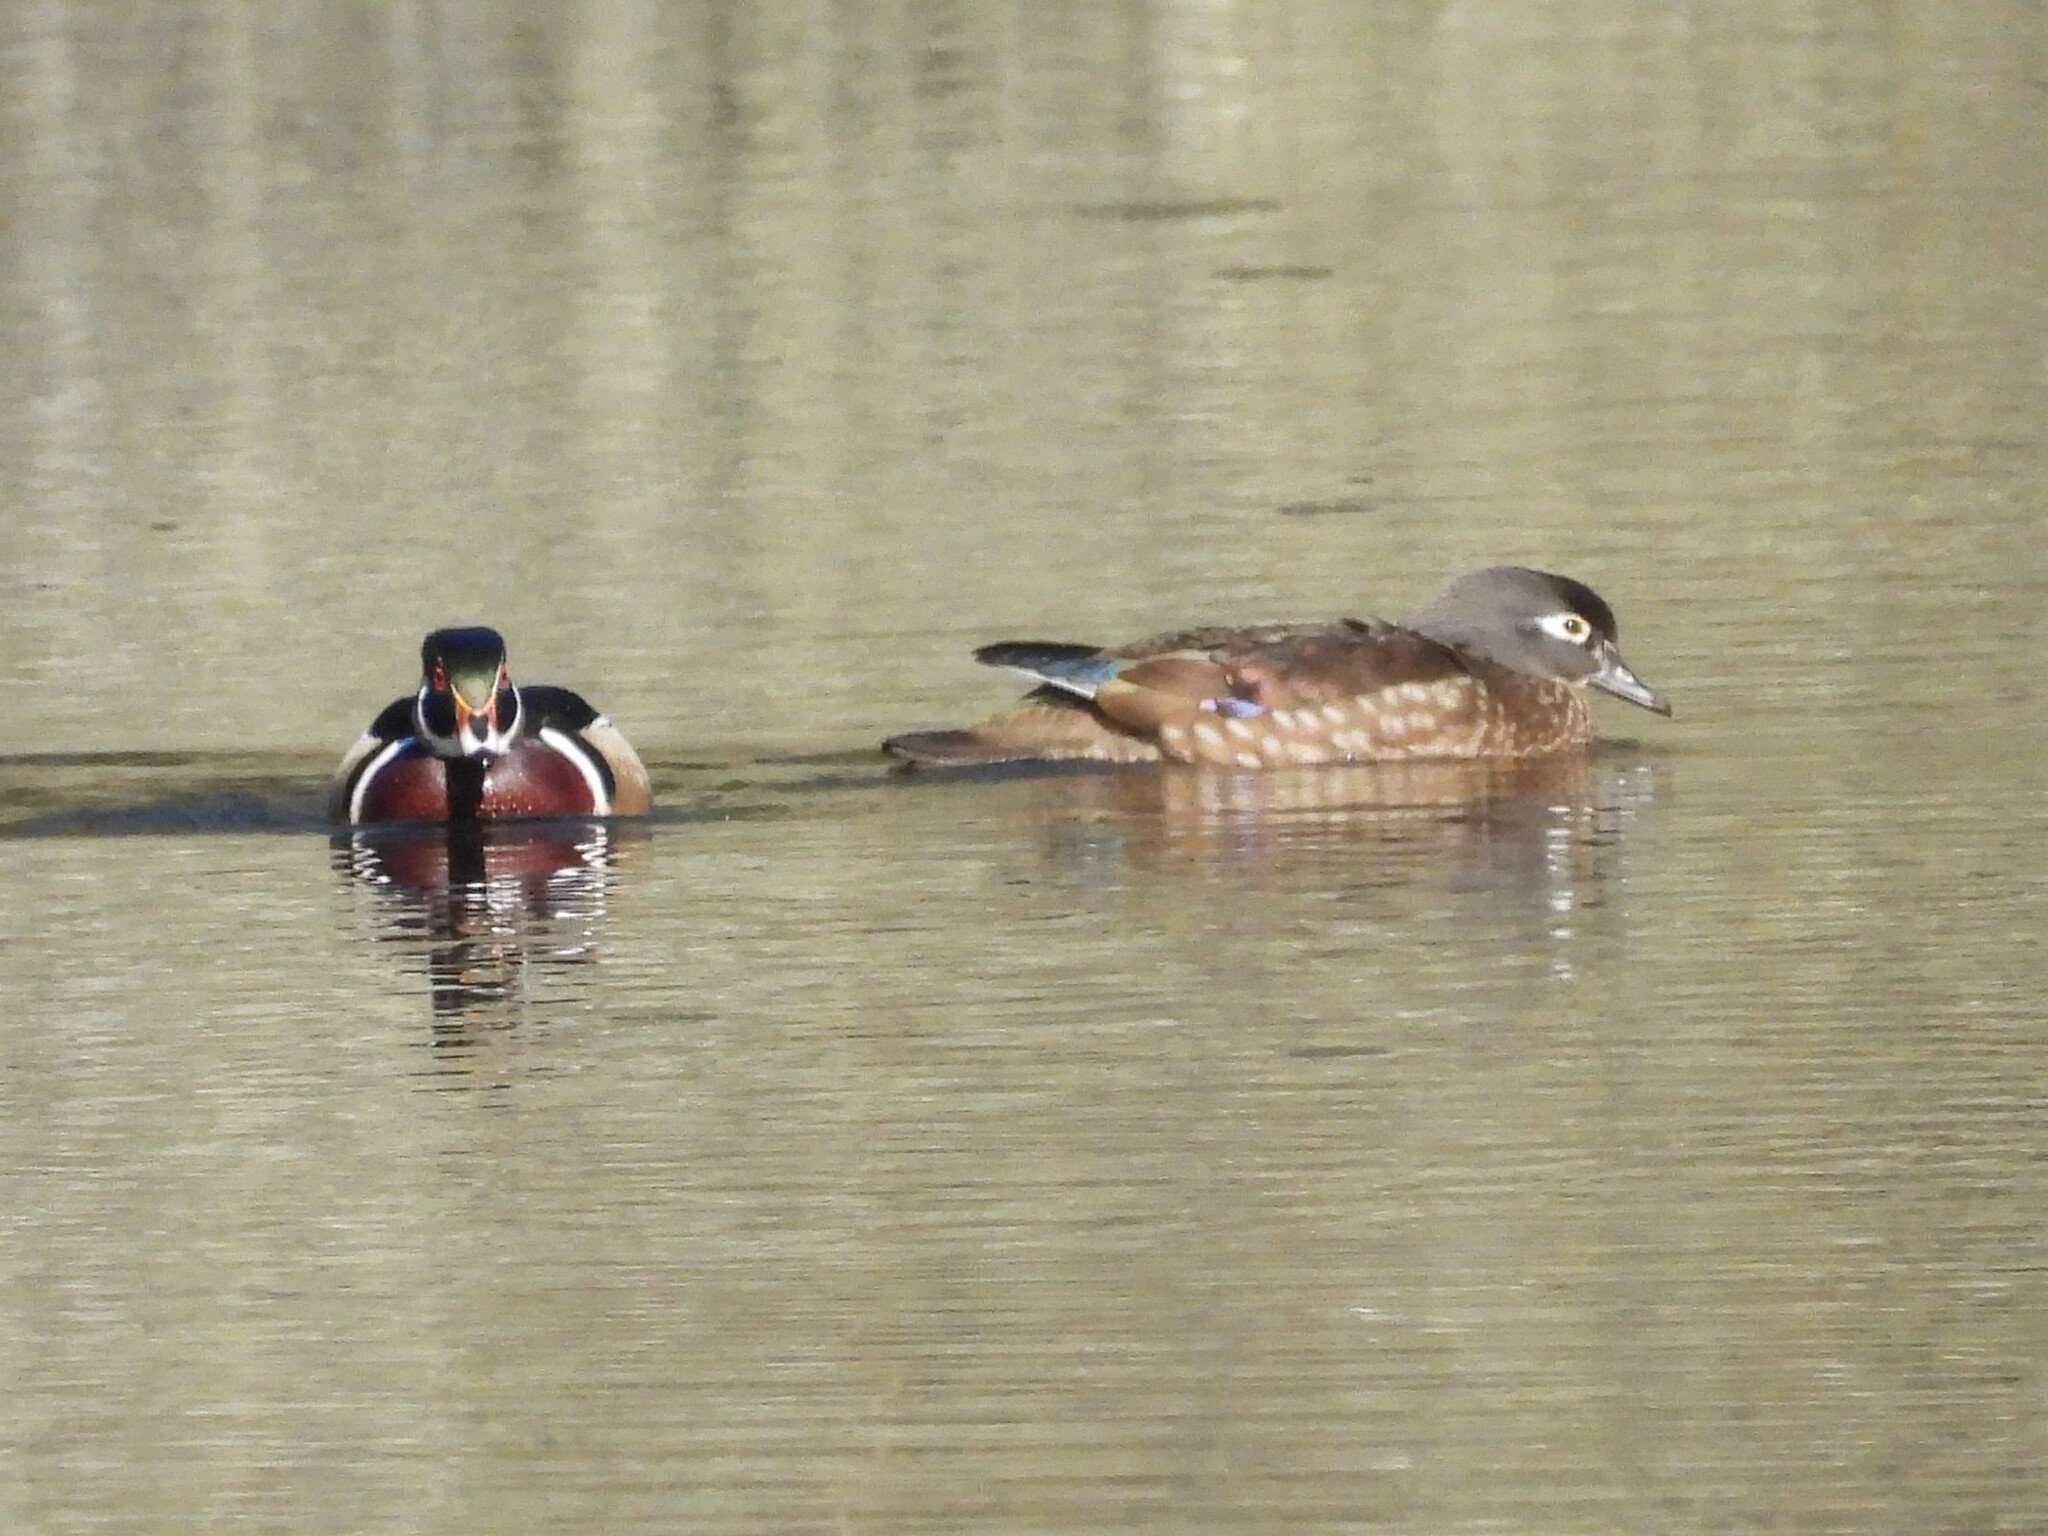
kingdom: Animalia
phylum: Chordata
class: Aves
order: Anseriformes
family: Anatidae
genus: Aix
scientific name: Aix sponsa
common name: Wood duck
